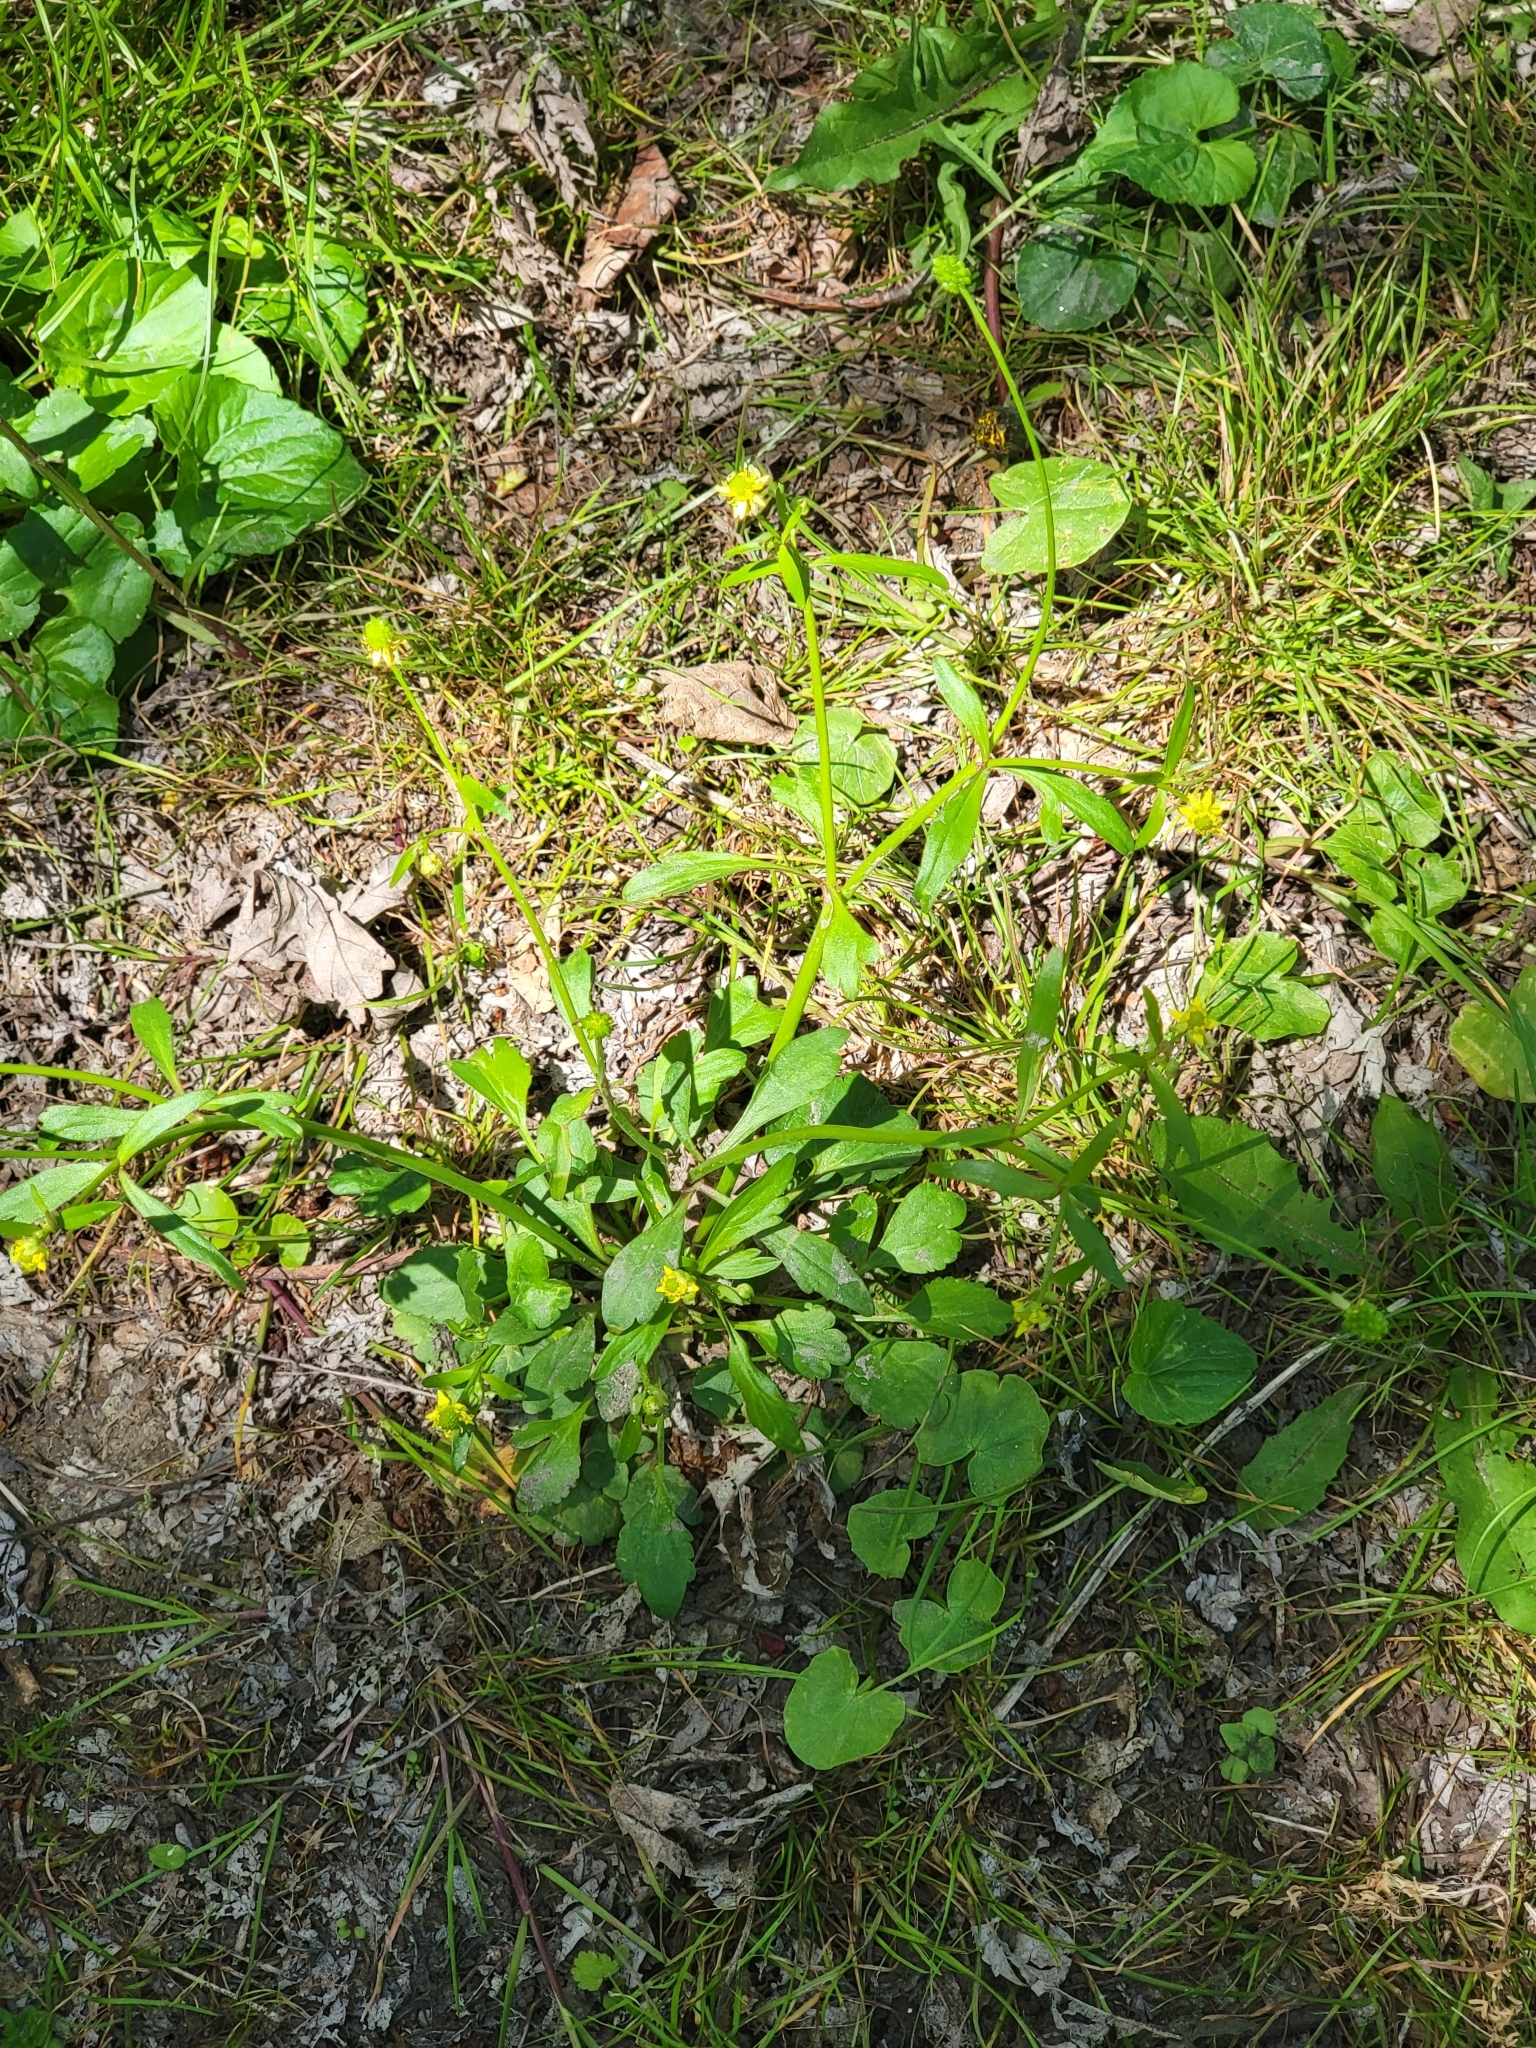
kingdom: Plantae
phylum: Tracheophyta
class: Magnoliopsida
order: Ranunculales
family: Ranunculaceae
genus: Ranunculus
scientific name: Ranunculus abortivus
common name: Early wood buttercup
